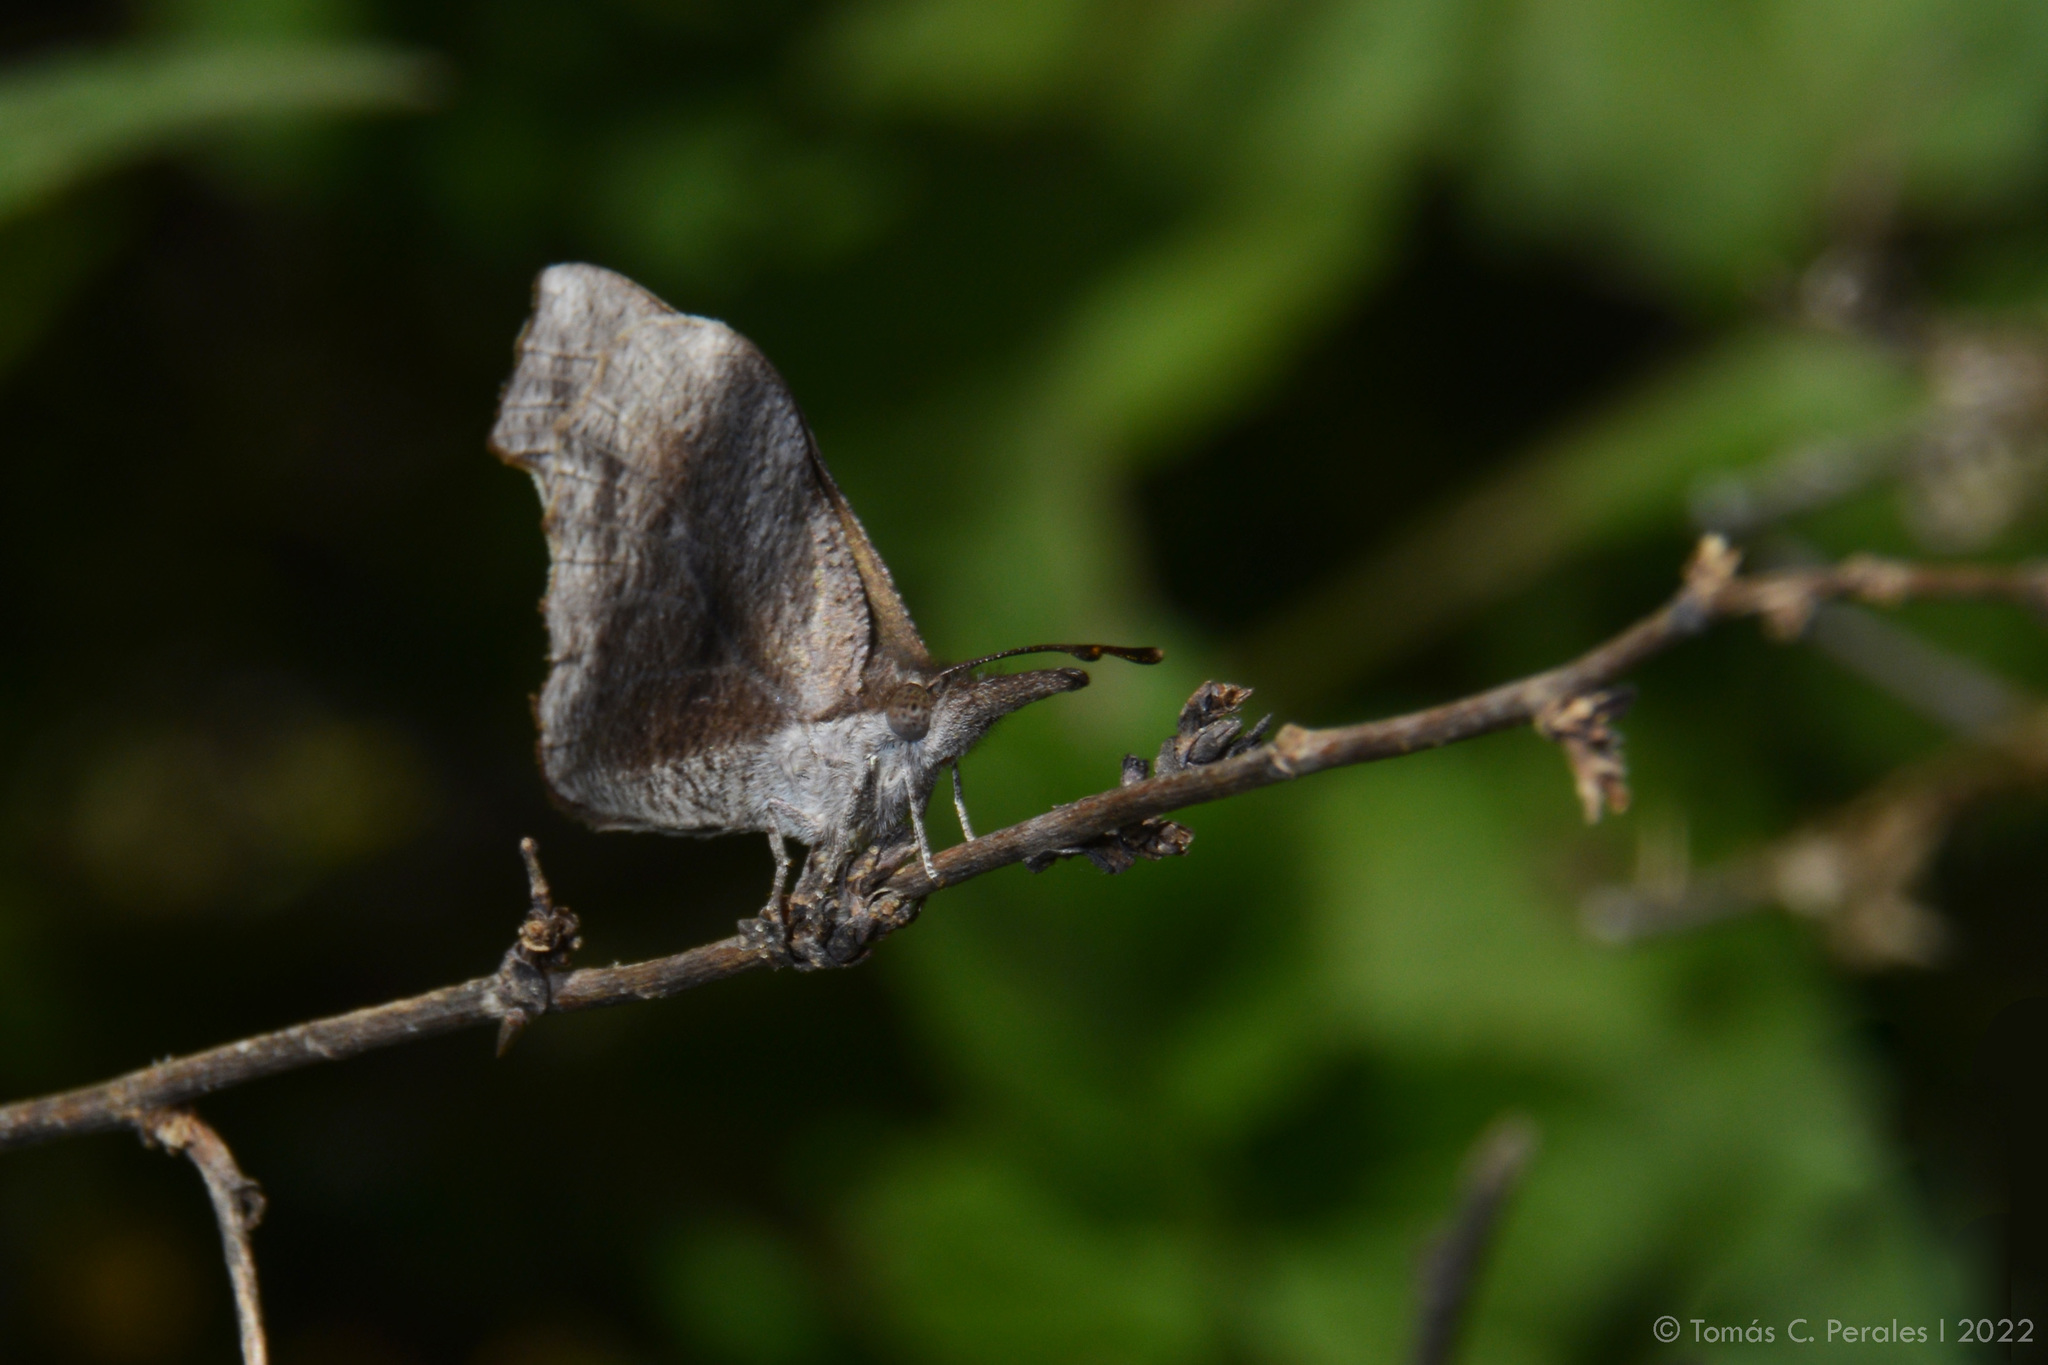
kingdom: Animalia
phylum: Arthropoda
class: Insecta
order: Lepidoptera
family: Nymphalidae
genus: Libytheana
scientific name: Libytheana carinenta
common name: American snout
